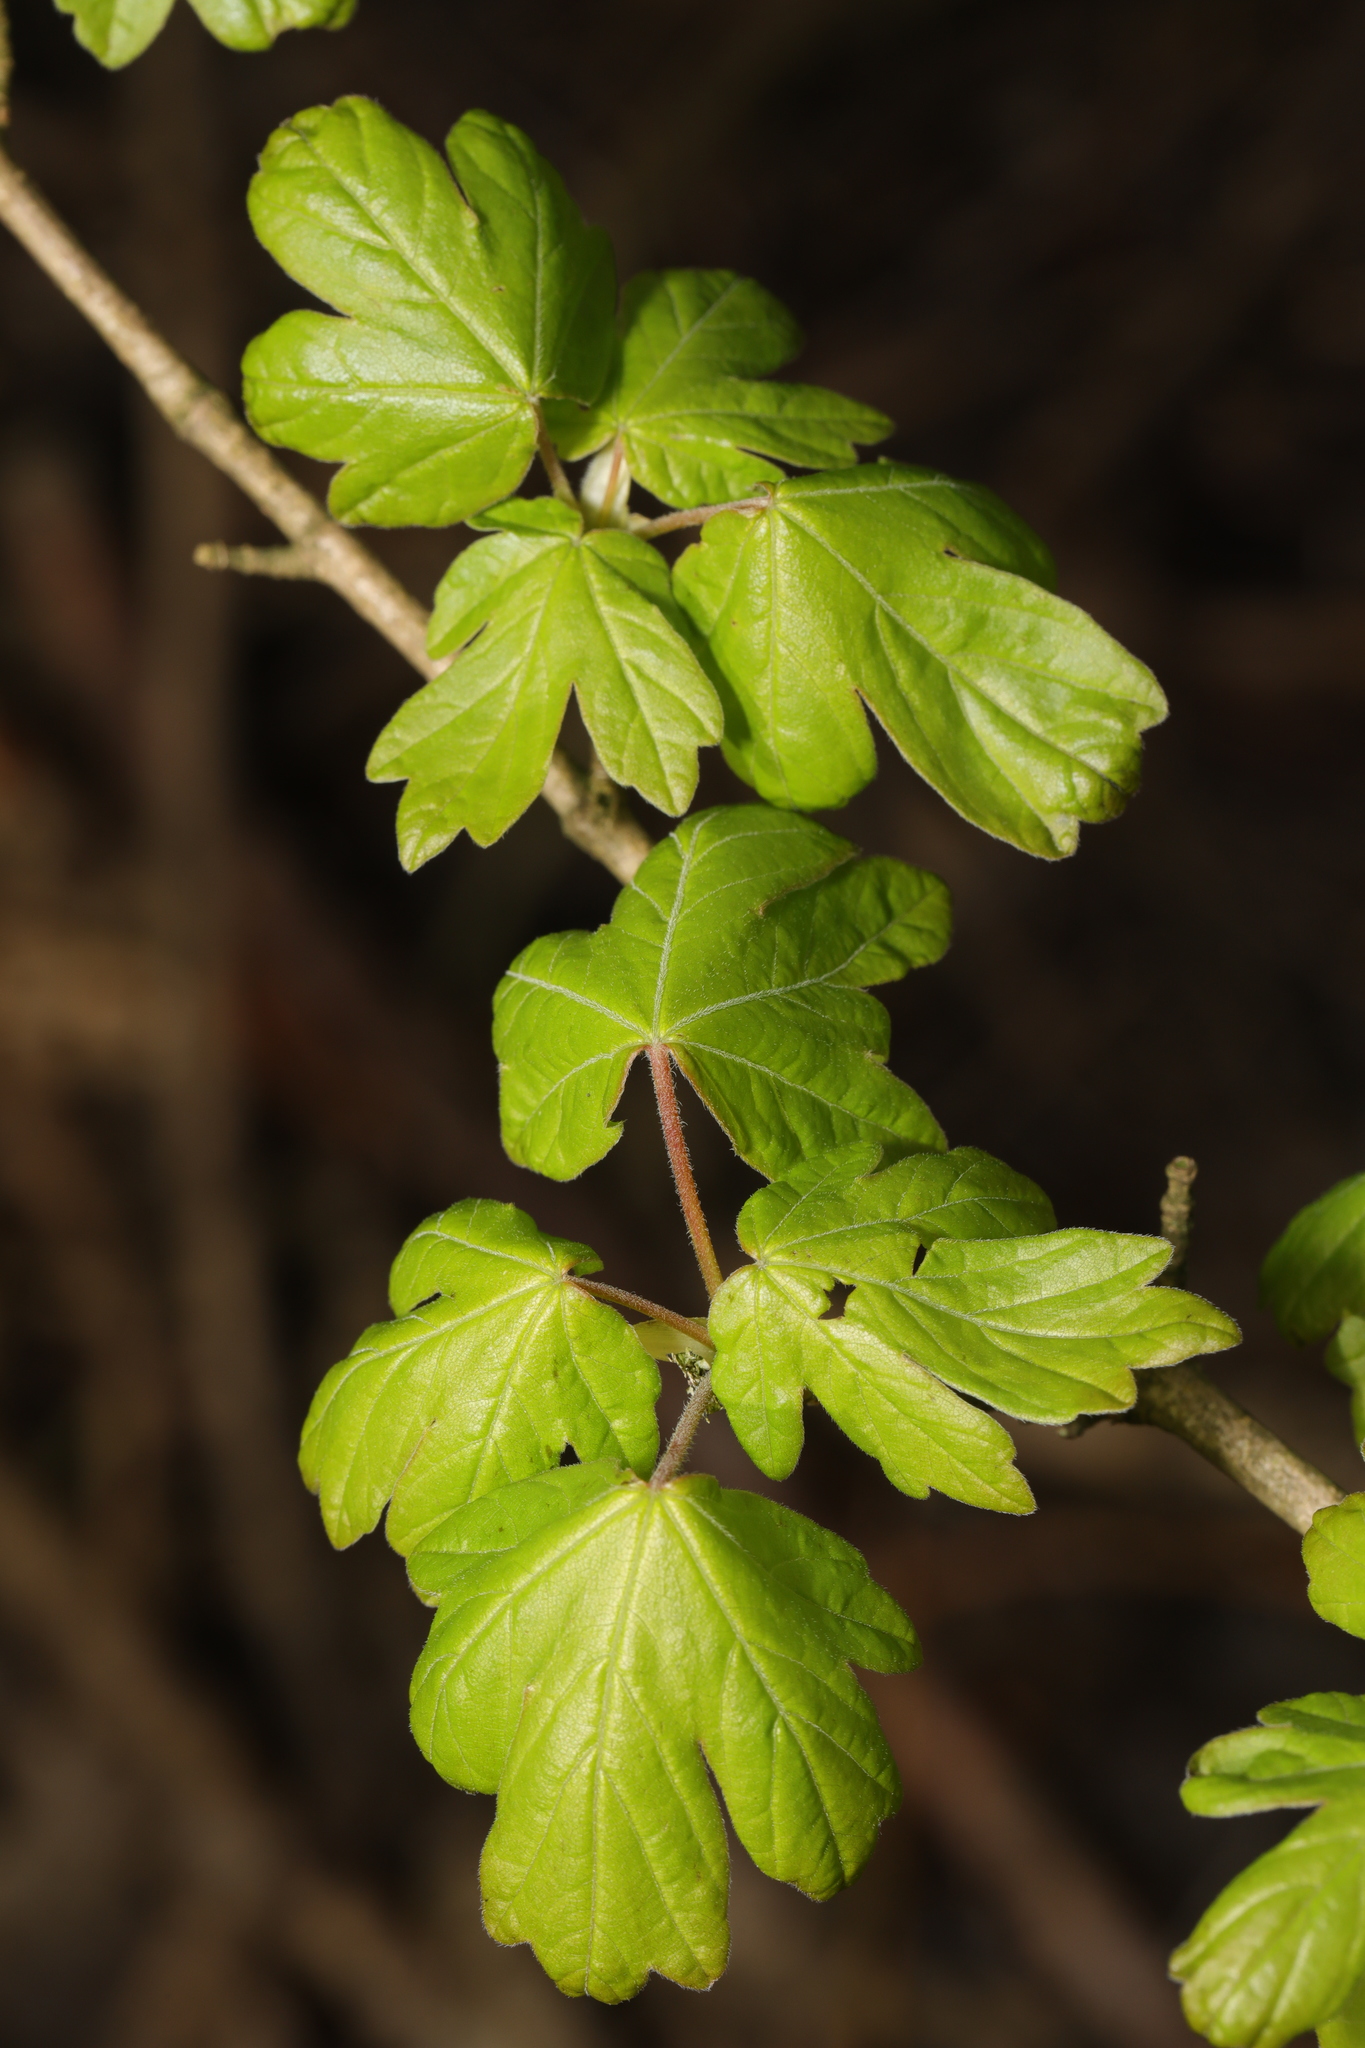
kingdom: Plantae
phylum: Tracheophyta
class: Magnoliopsida
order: Sapindales
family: Sapindaceae
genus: Acer
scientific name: Acer campestre
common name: Field maple
